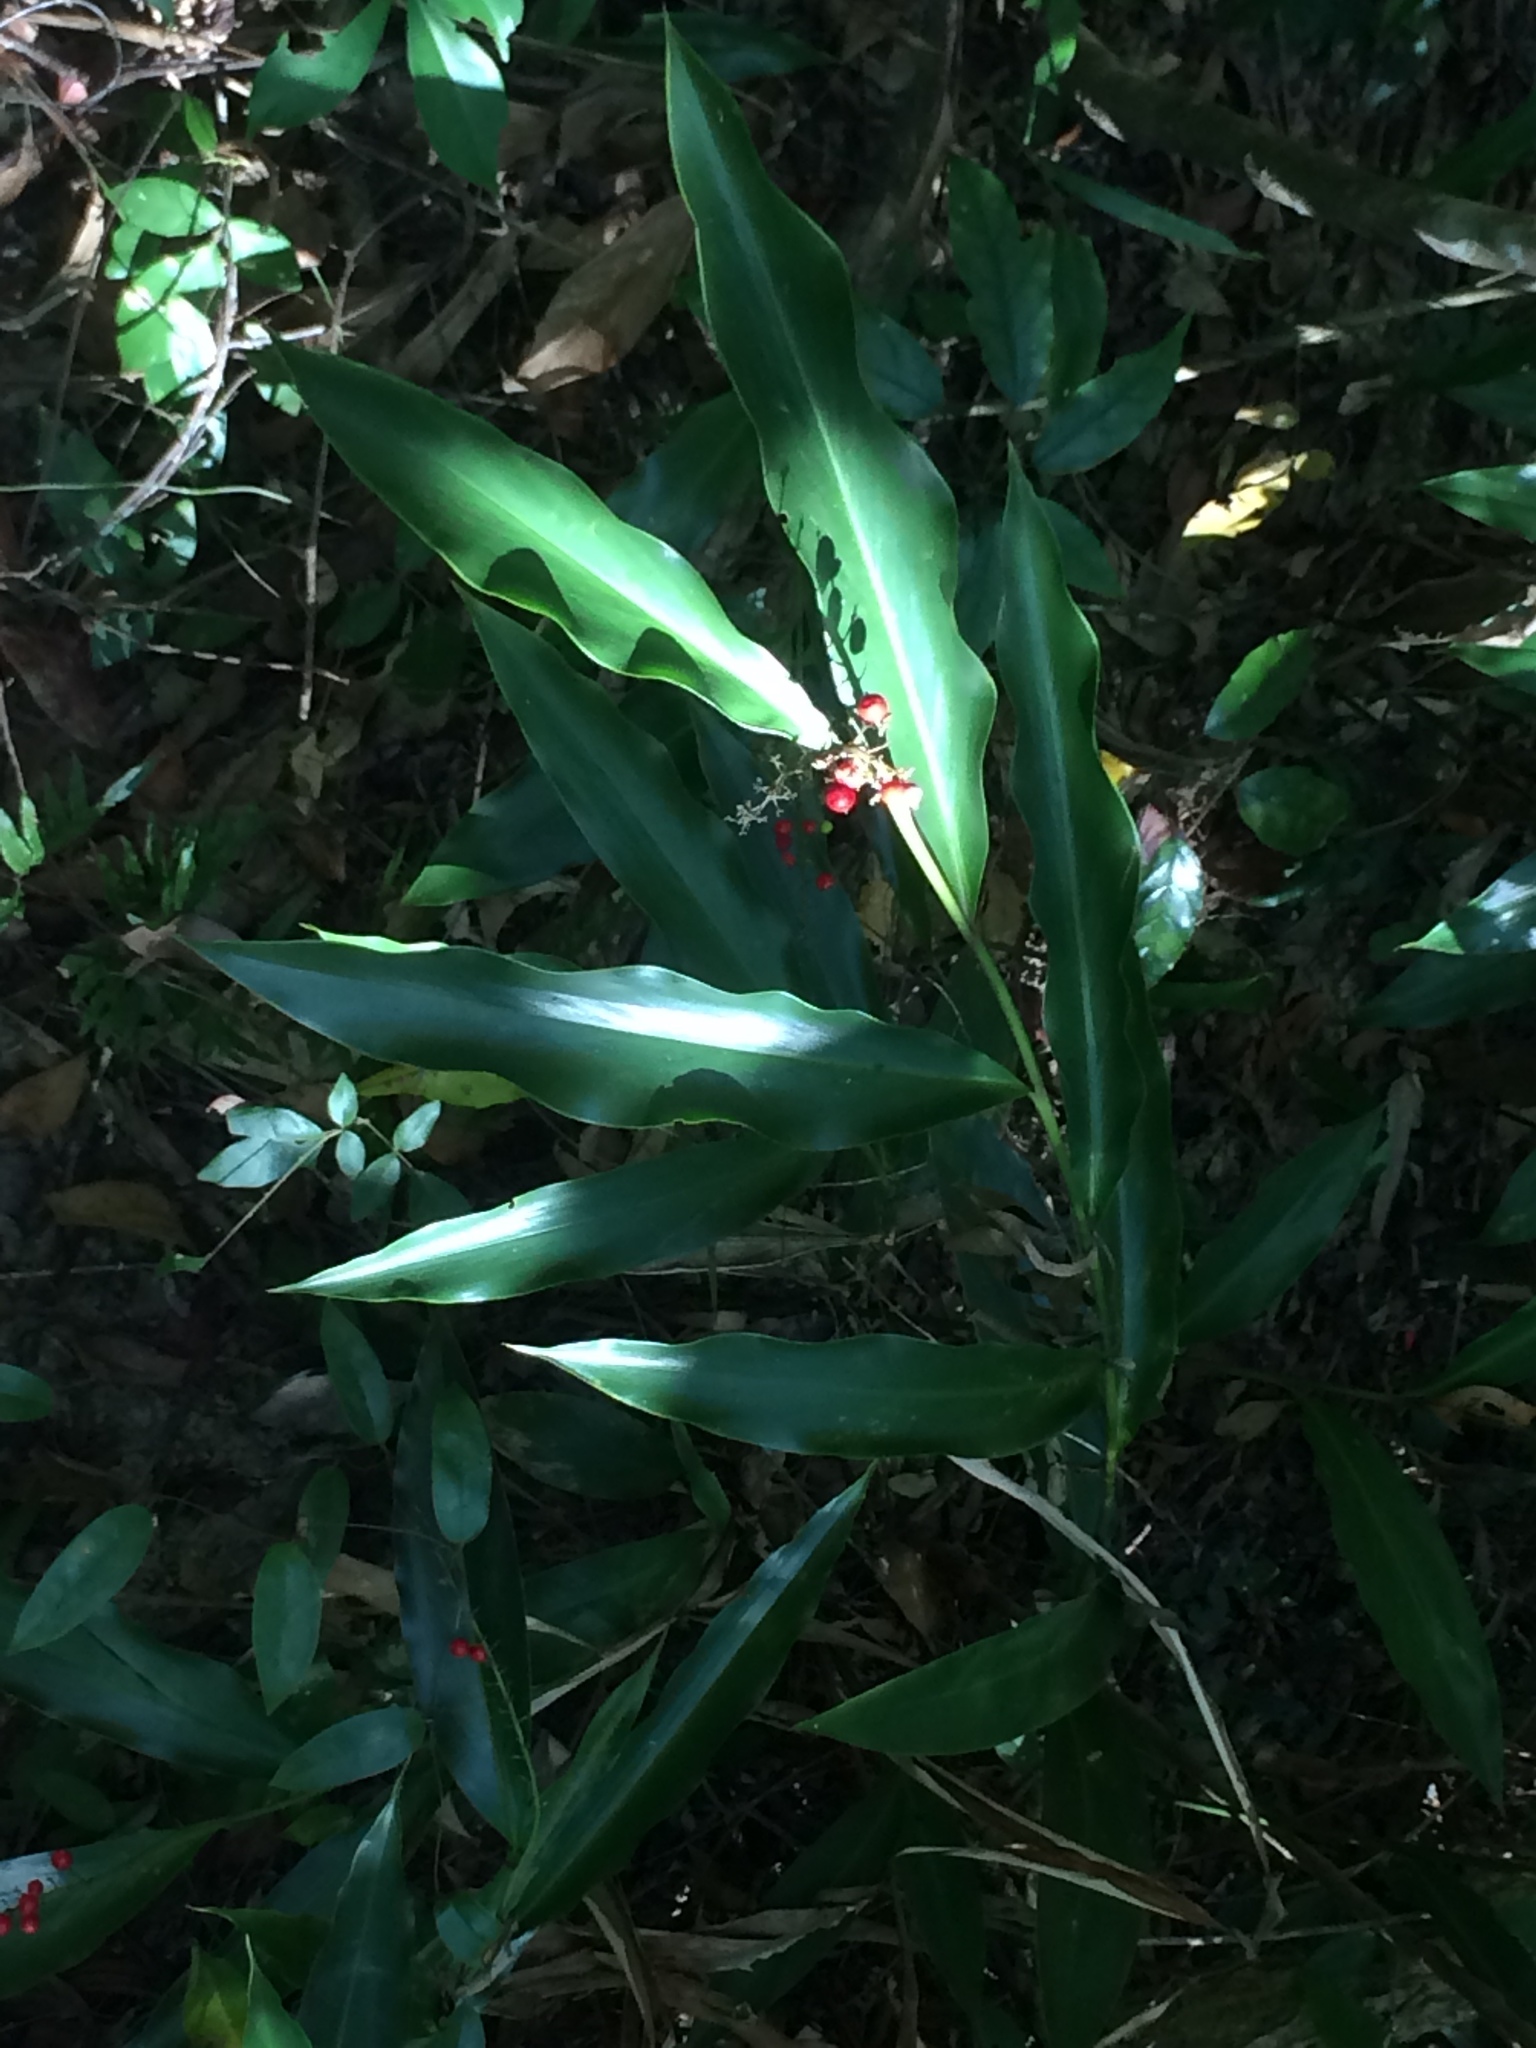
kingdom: Plantae
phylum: Tracheophyta
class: Liliopsida
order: Zingiberales
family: Zingiberaceae
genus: Alpinia
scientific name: Alpinia intermedia
